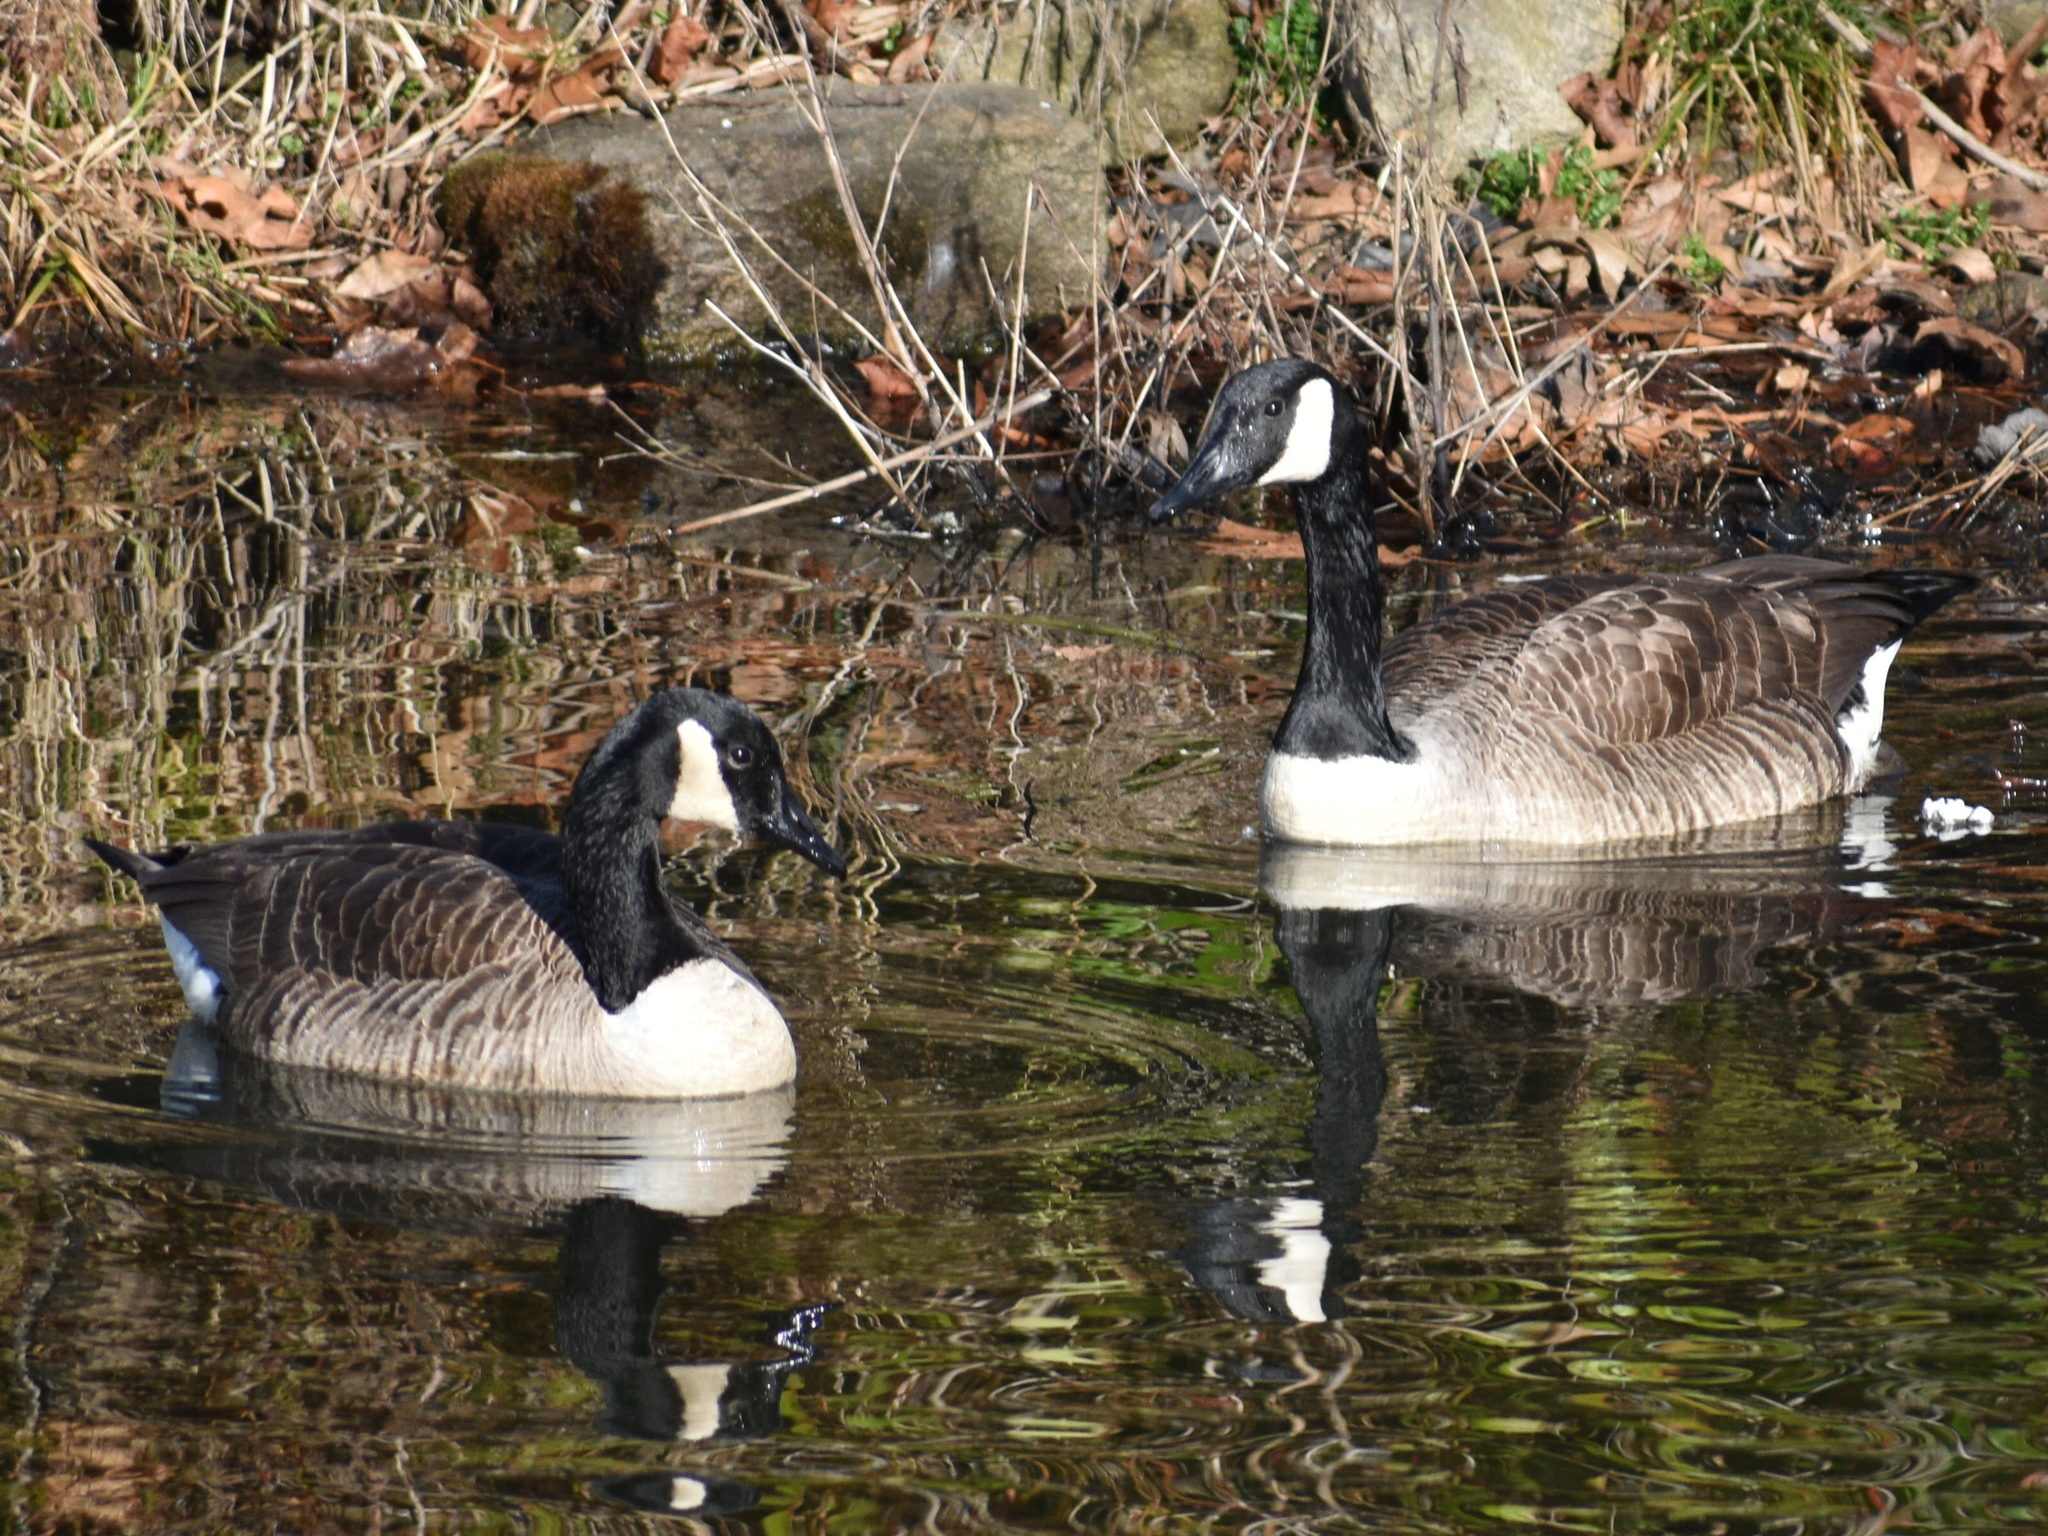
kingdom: Animalia
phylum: Chordata
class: Aves
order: Anseriformes
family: Anatidae
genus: Branta
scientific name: Branta canadensis
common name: Canada goose
